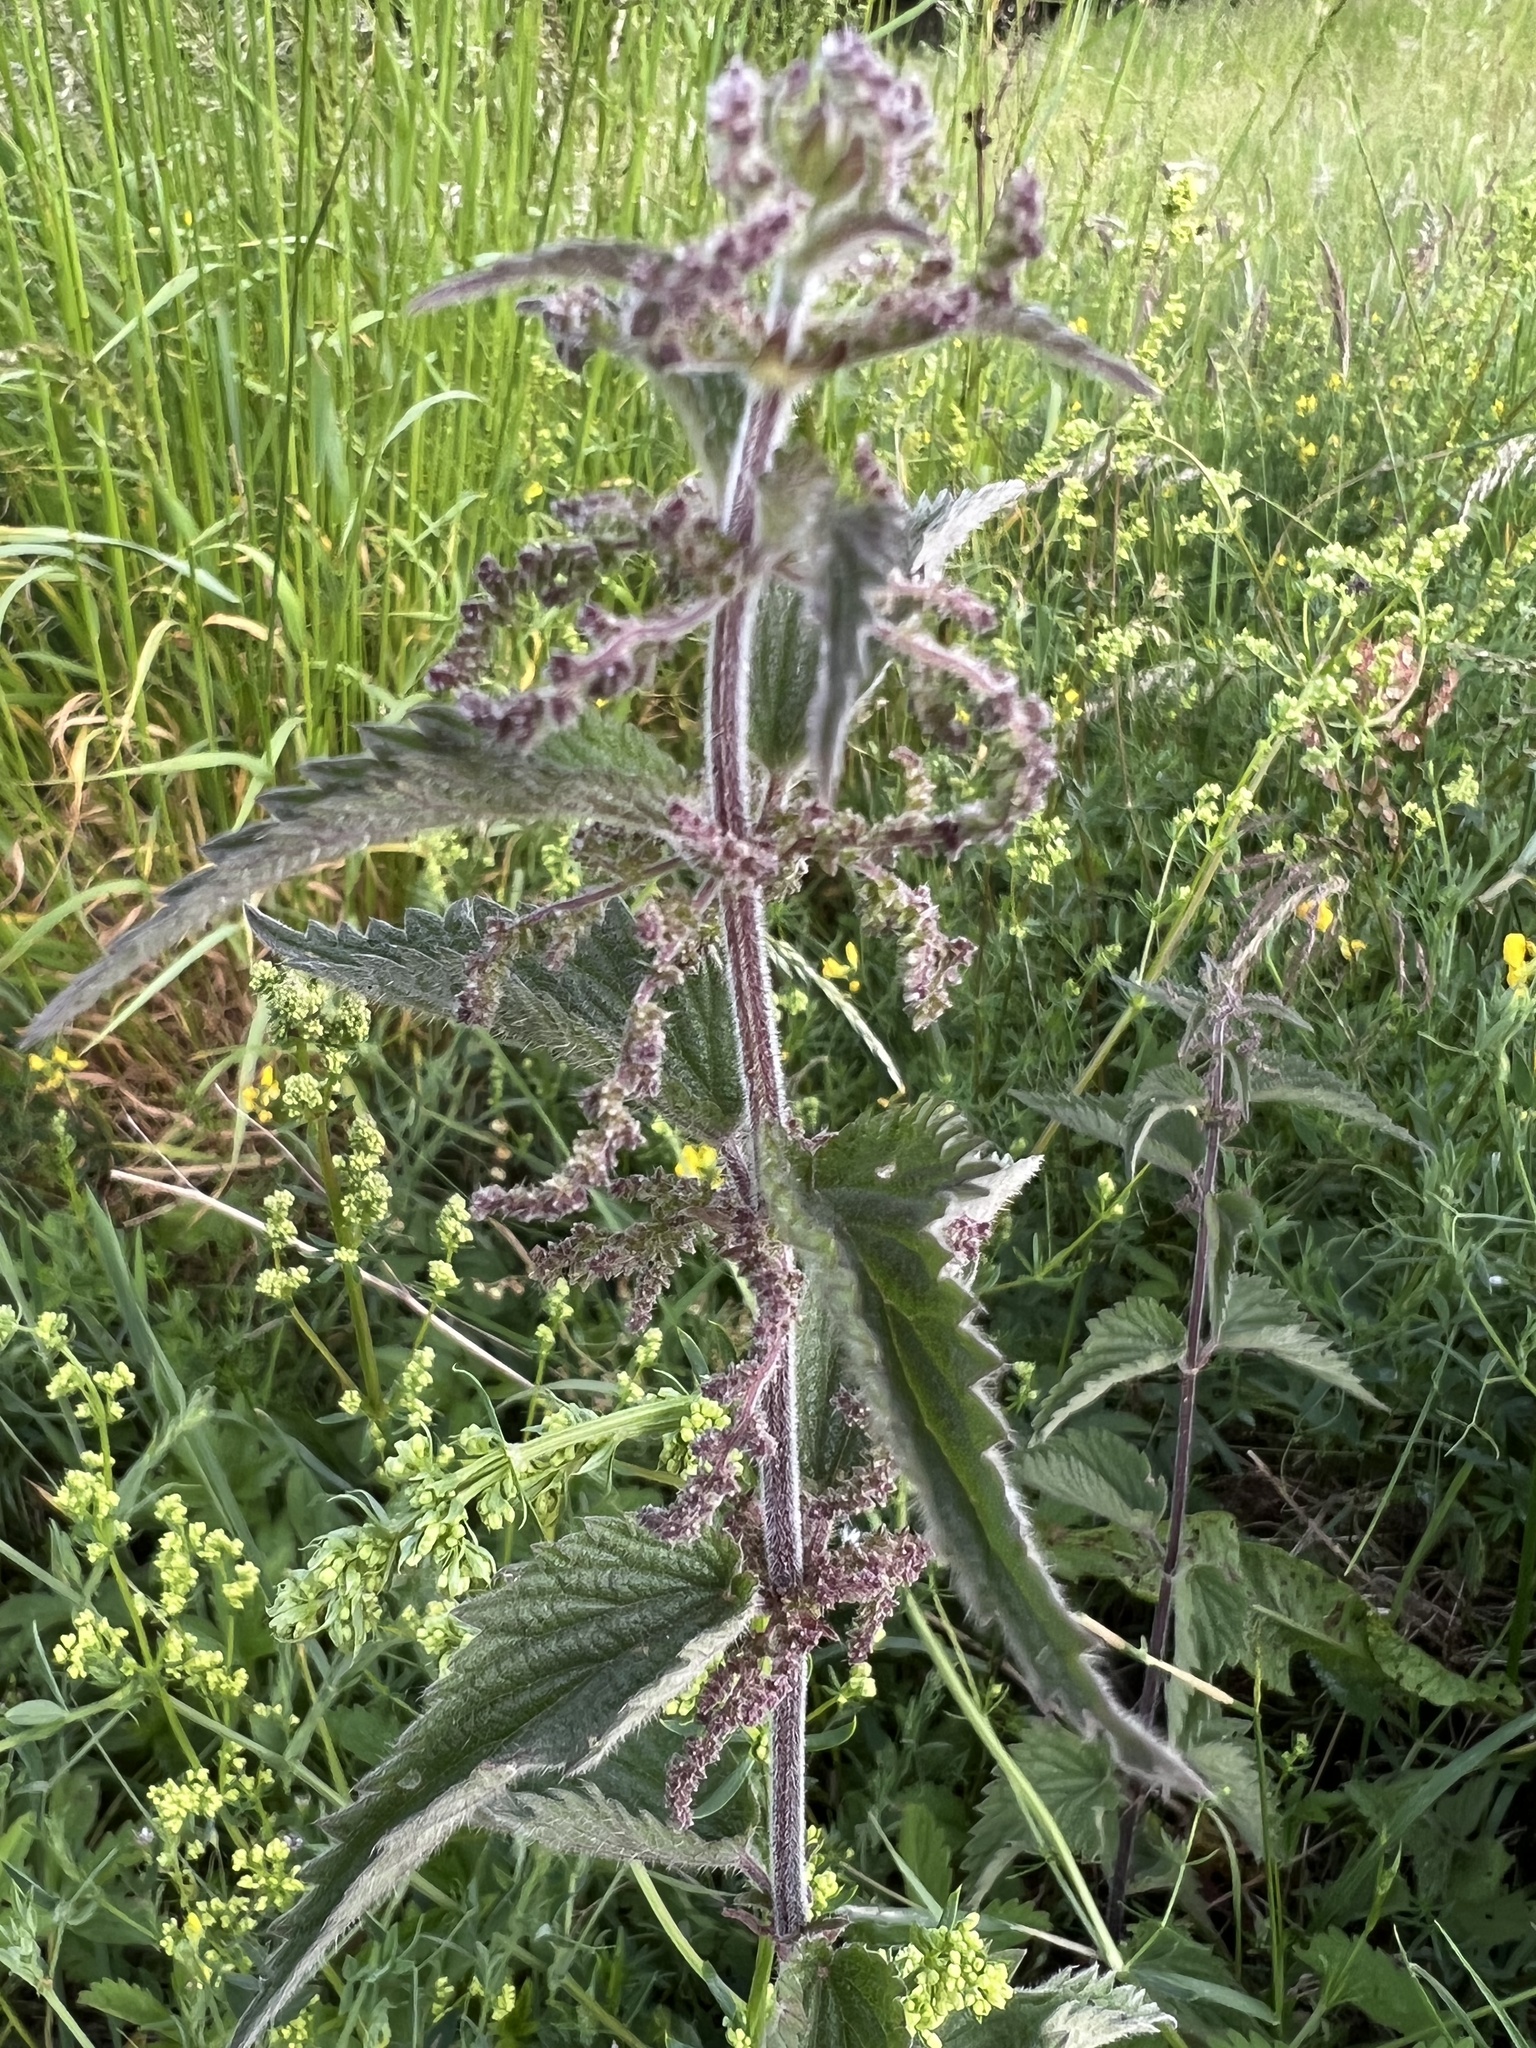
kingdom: Plantae
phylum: Tracheophyta
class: Magnoliopsida
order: Rosales
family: Urticaceae
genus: Urtica
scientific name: Urtica dioica
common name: Common nettle
